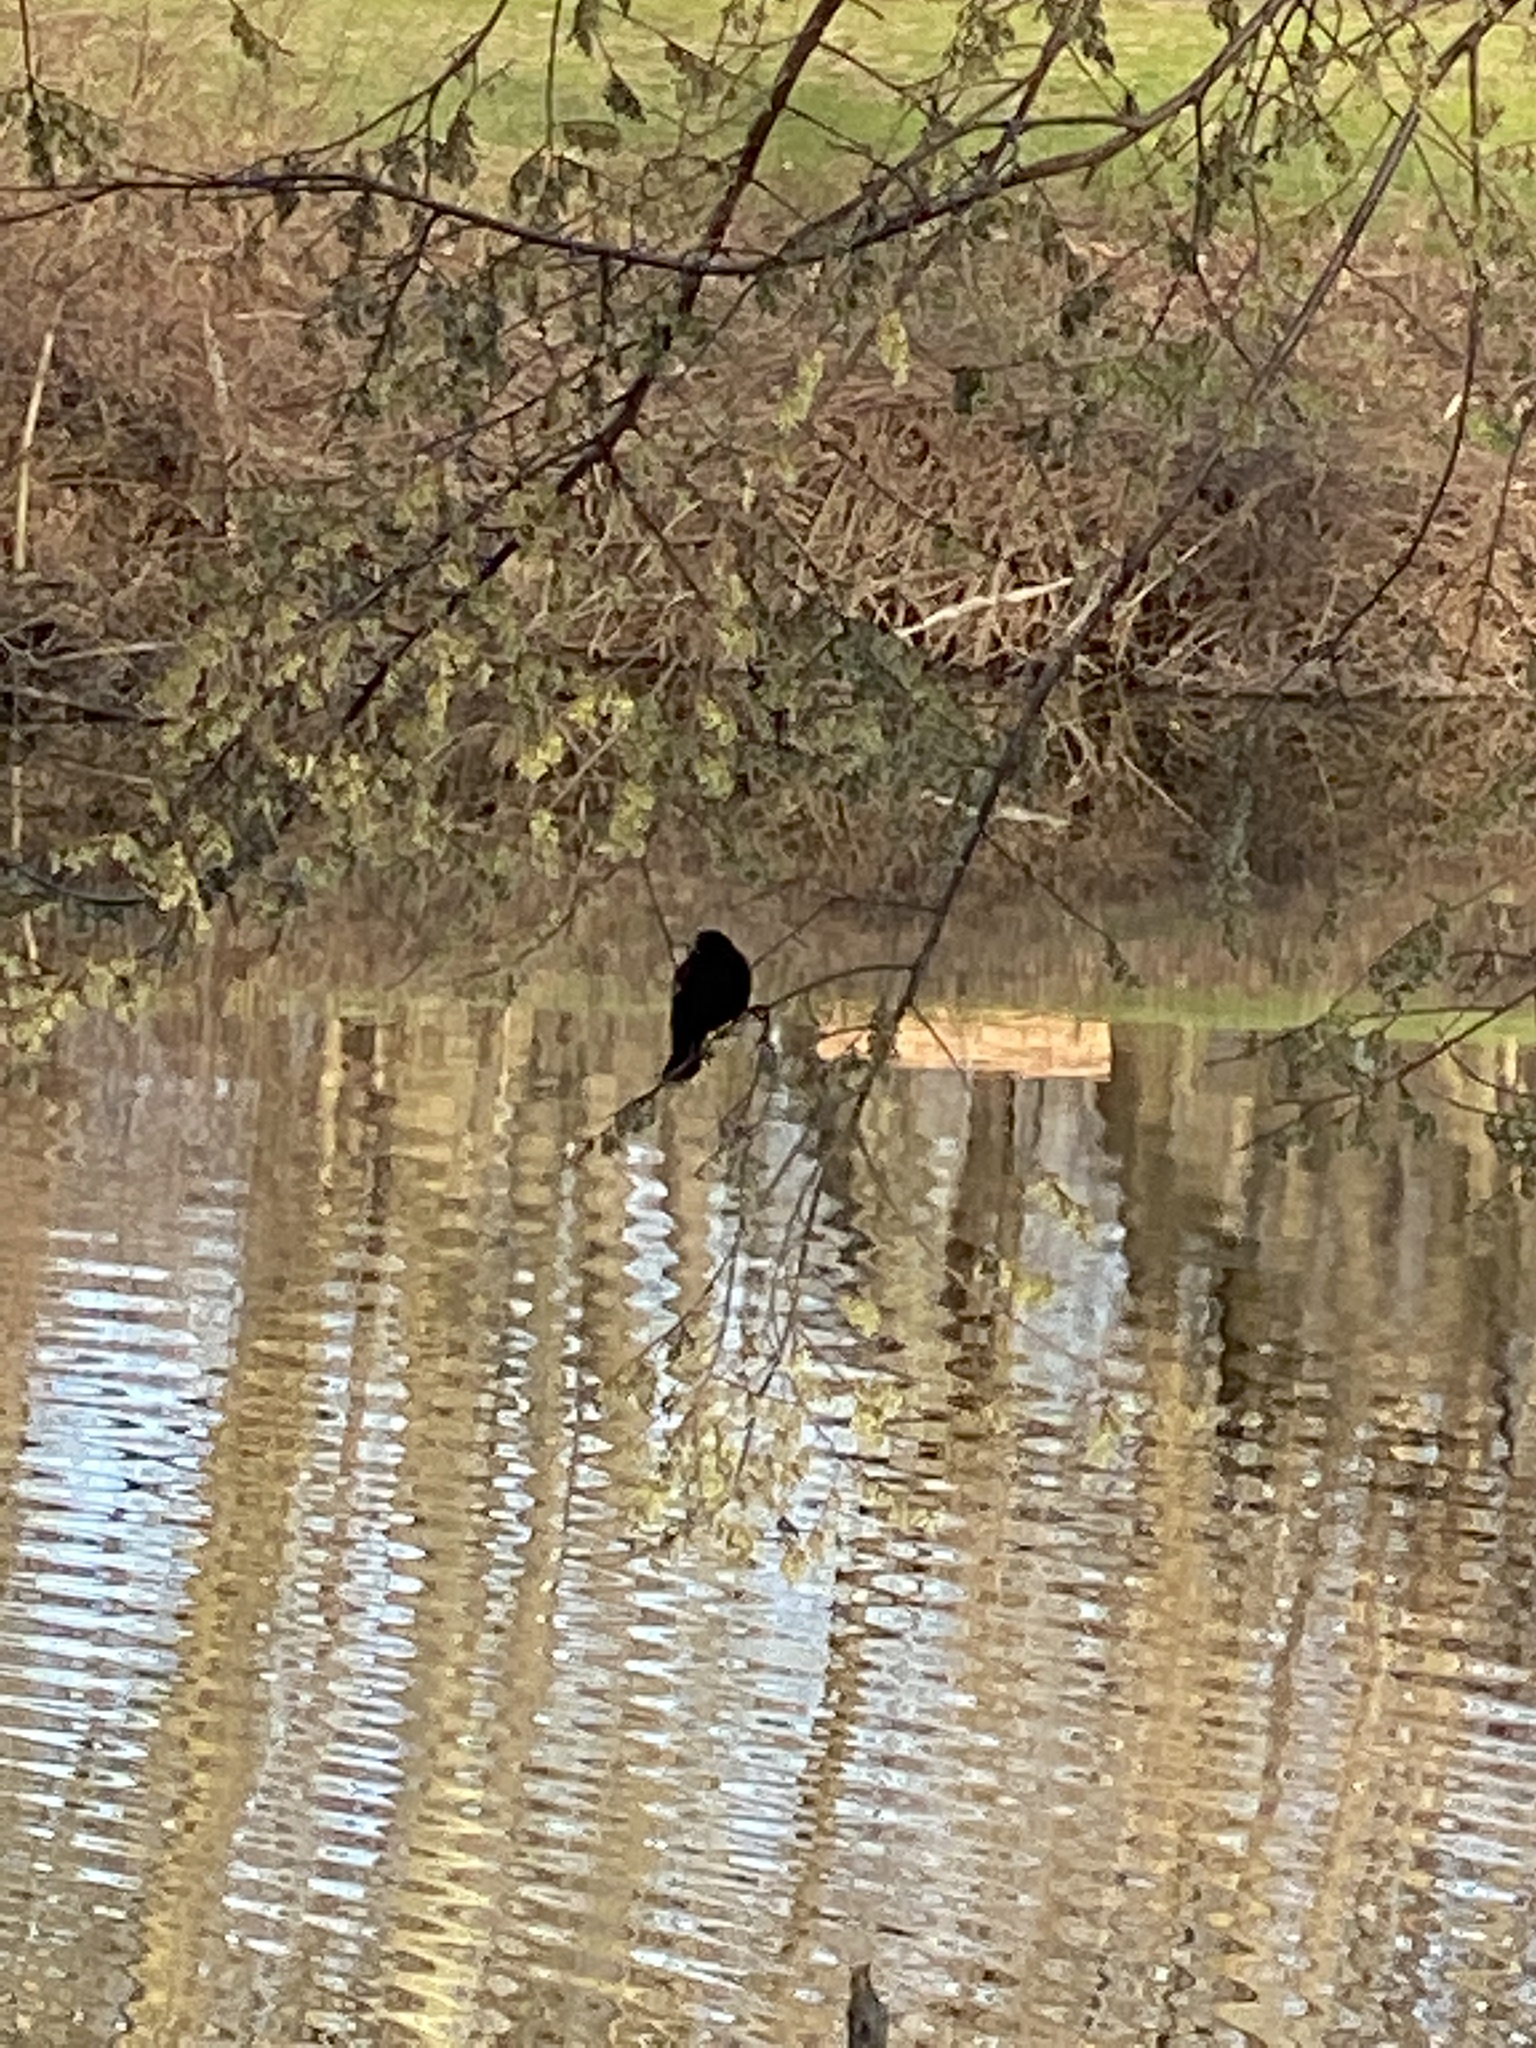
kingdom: Animalia
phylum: Chordata
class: Aves
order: Passeriformes
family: Icteridae
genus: Agelaius
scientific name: Agelaius phoeniceus
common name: Red-winged blackbird
